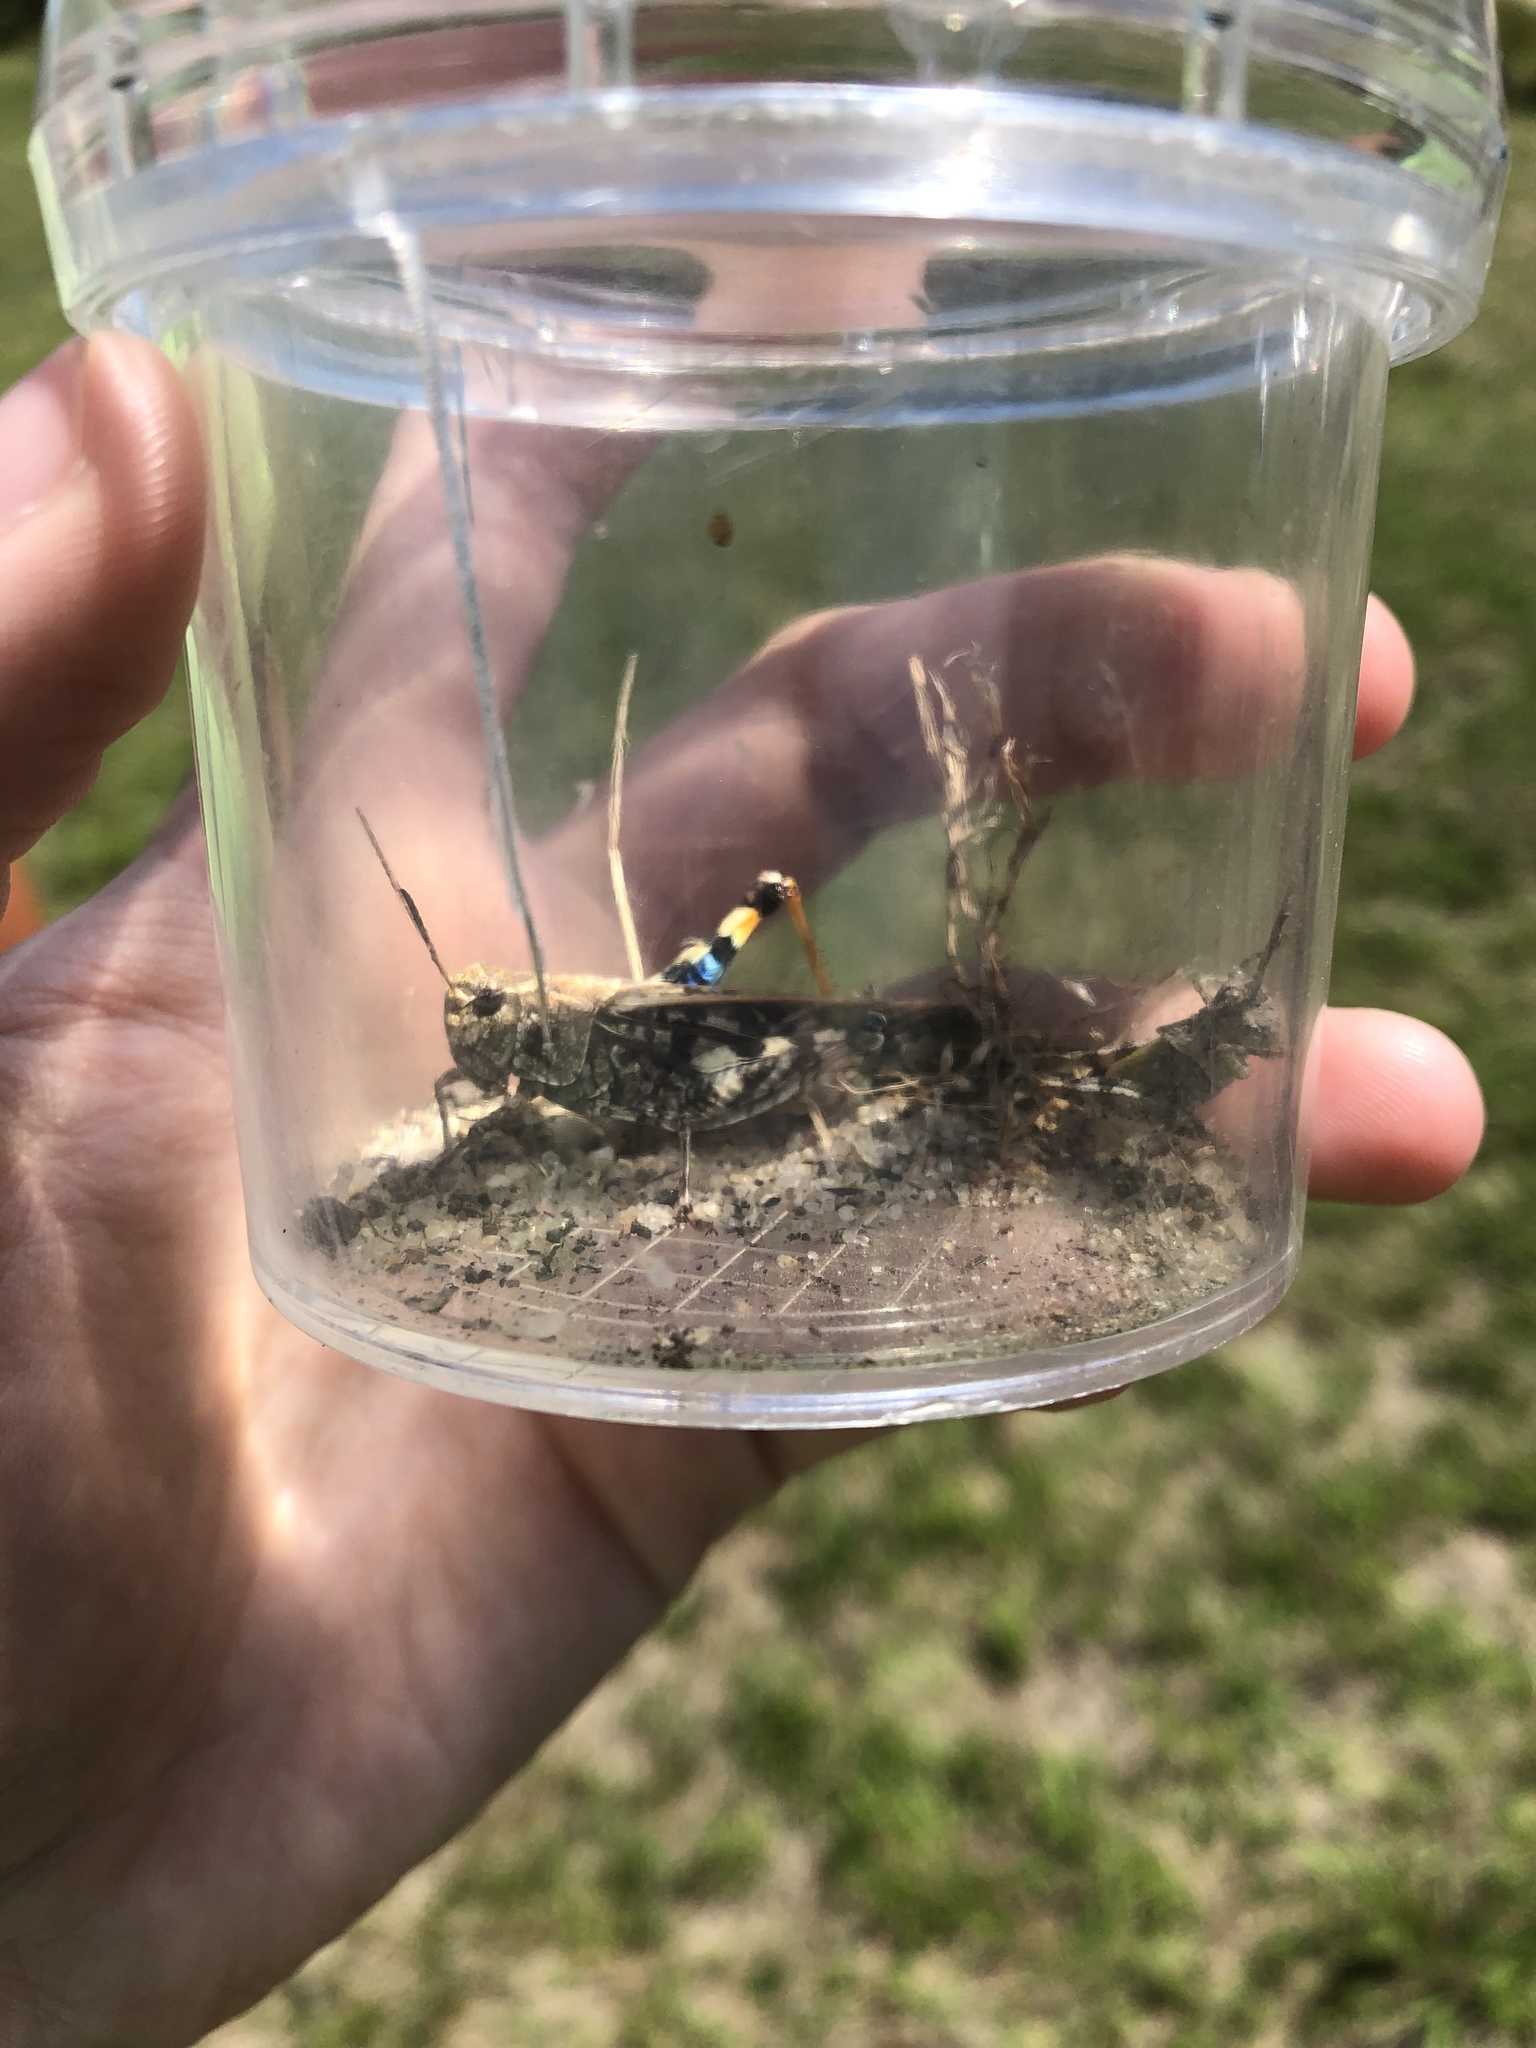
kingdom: Animalia
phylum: Arthropoda
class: Insecta
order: Orthoptera
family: Acrididae
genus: Pardalophora
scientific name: Pardalophora phoenicoptera
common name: Orange-winged grasshopper
